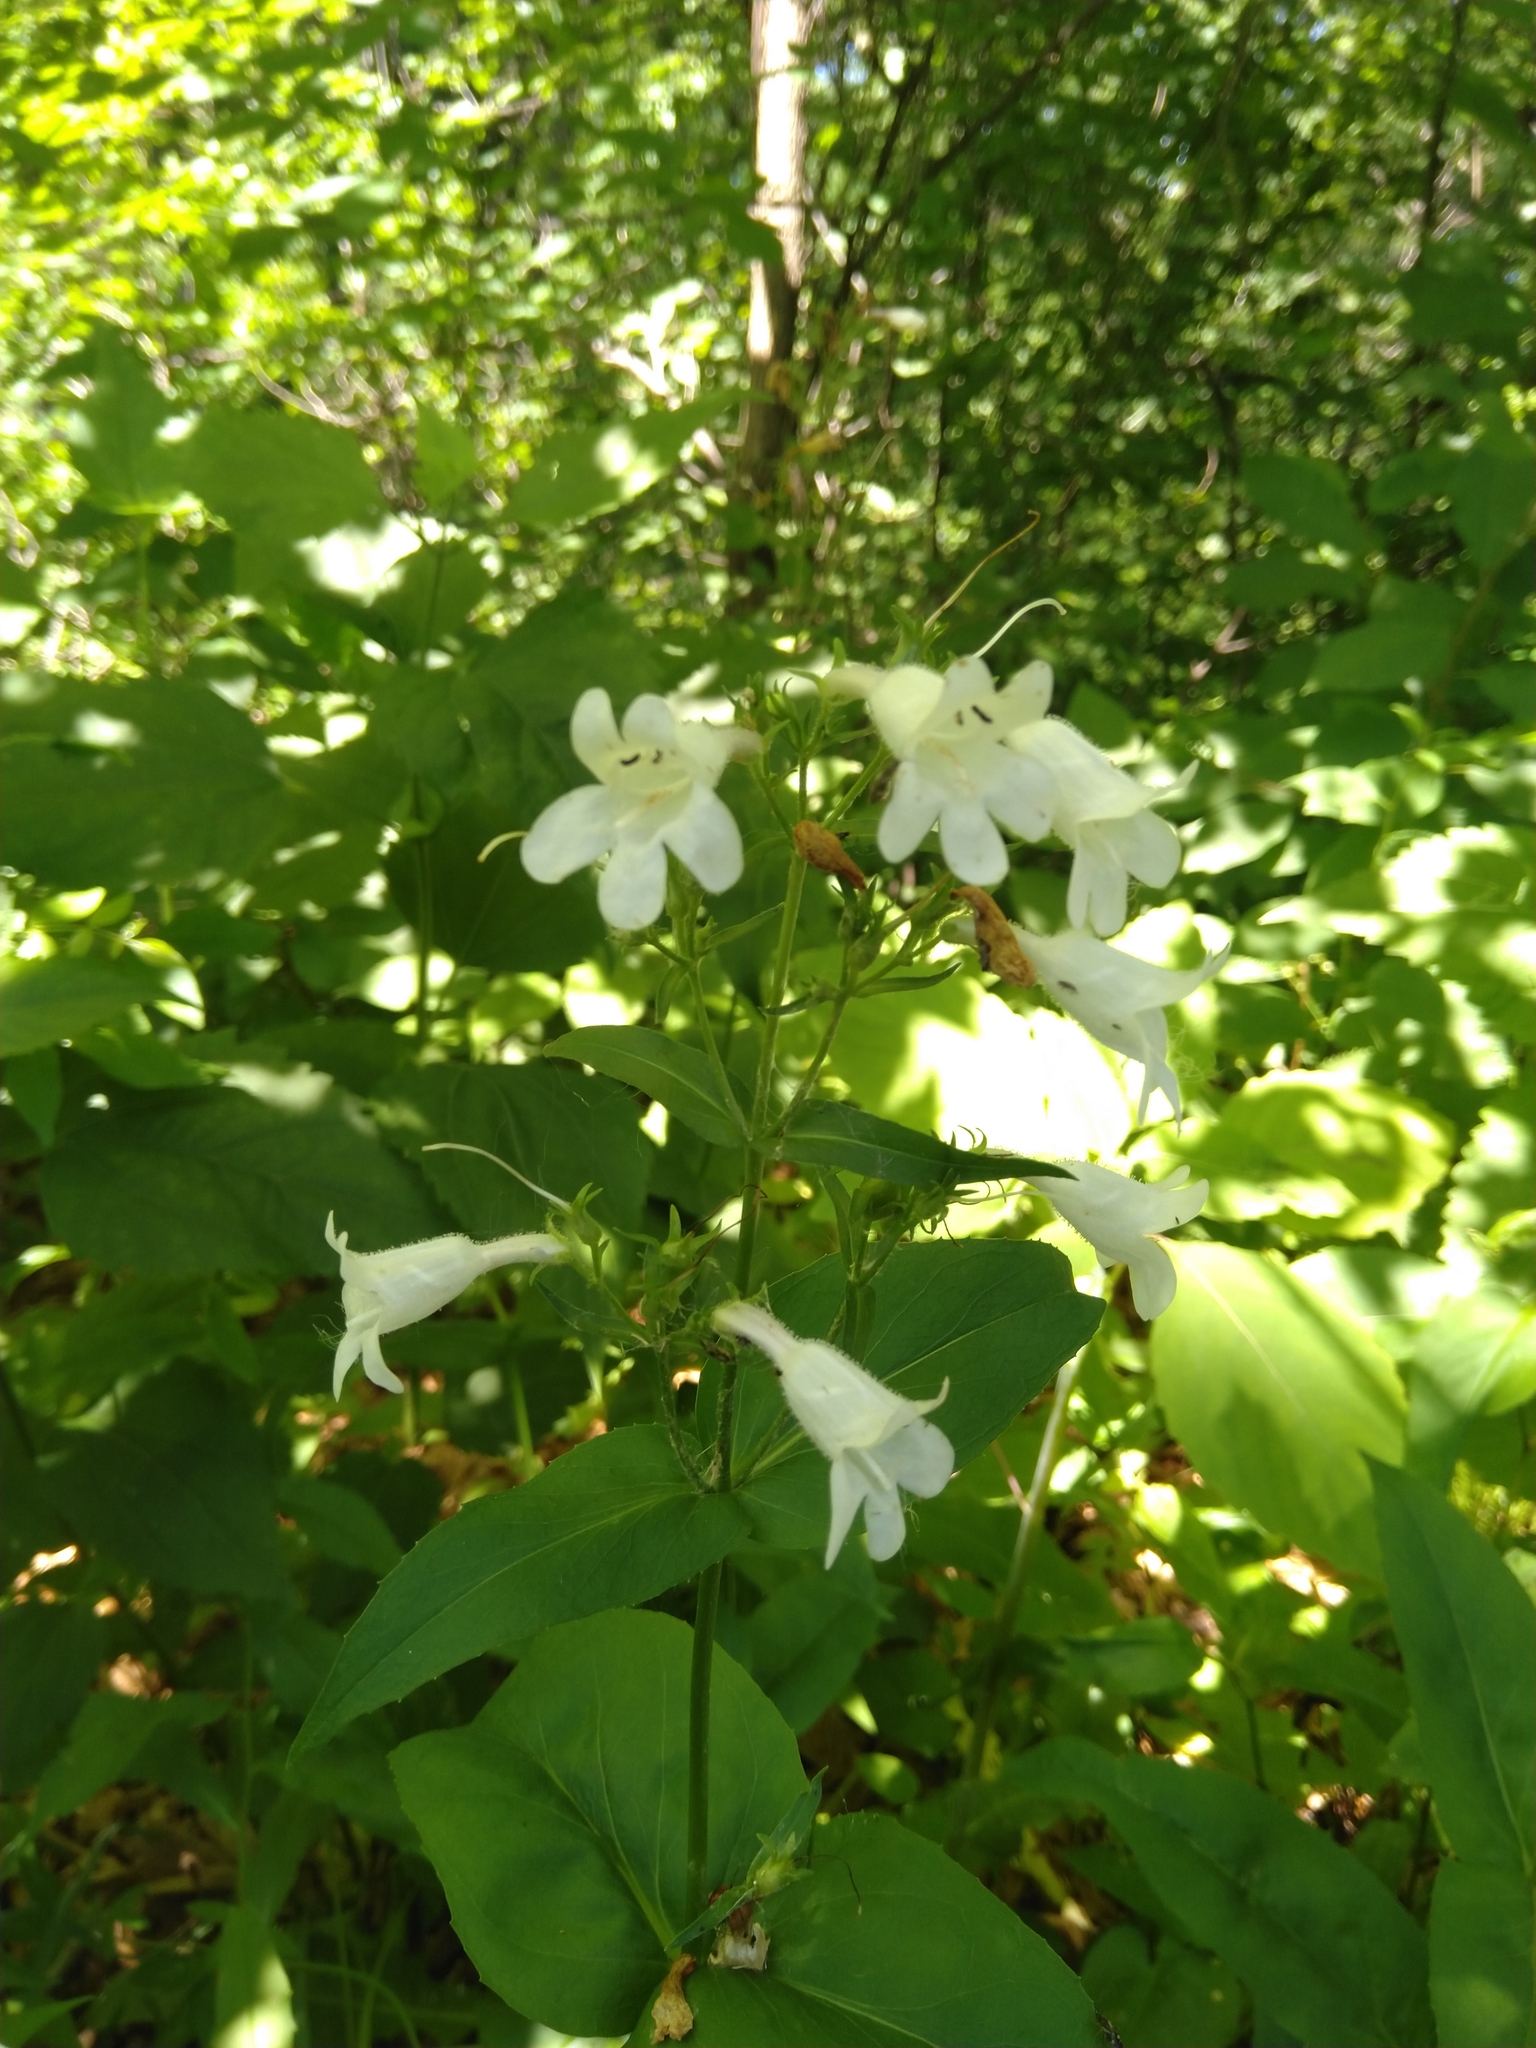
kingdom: Plantae
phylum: Tracheophyta
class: Magnoliopsida
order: Lamiales
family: Plantaginaceae
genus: Penstemon
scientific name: Penstemon digitalis
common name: Foxglove beardtongue
